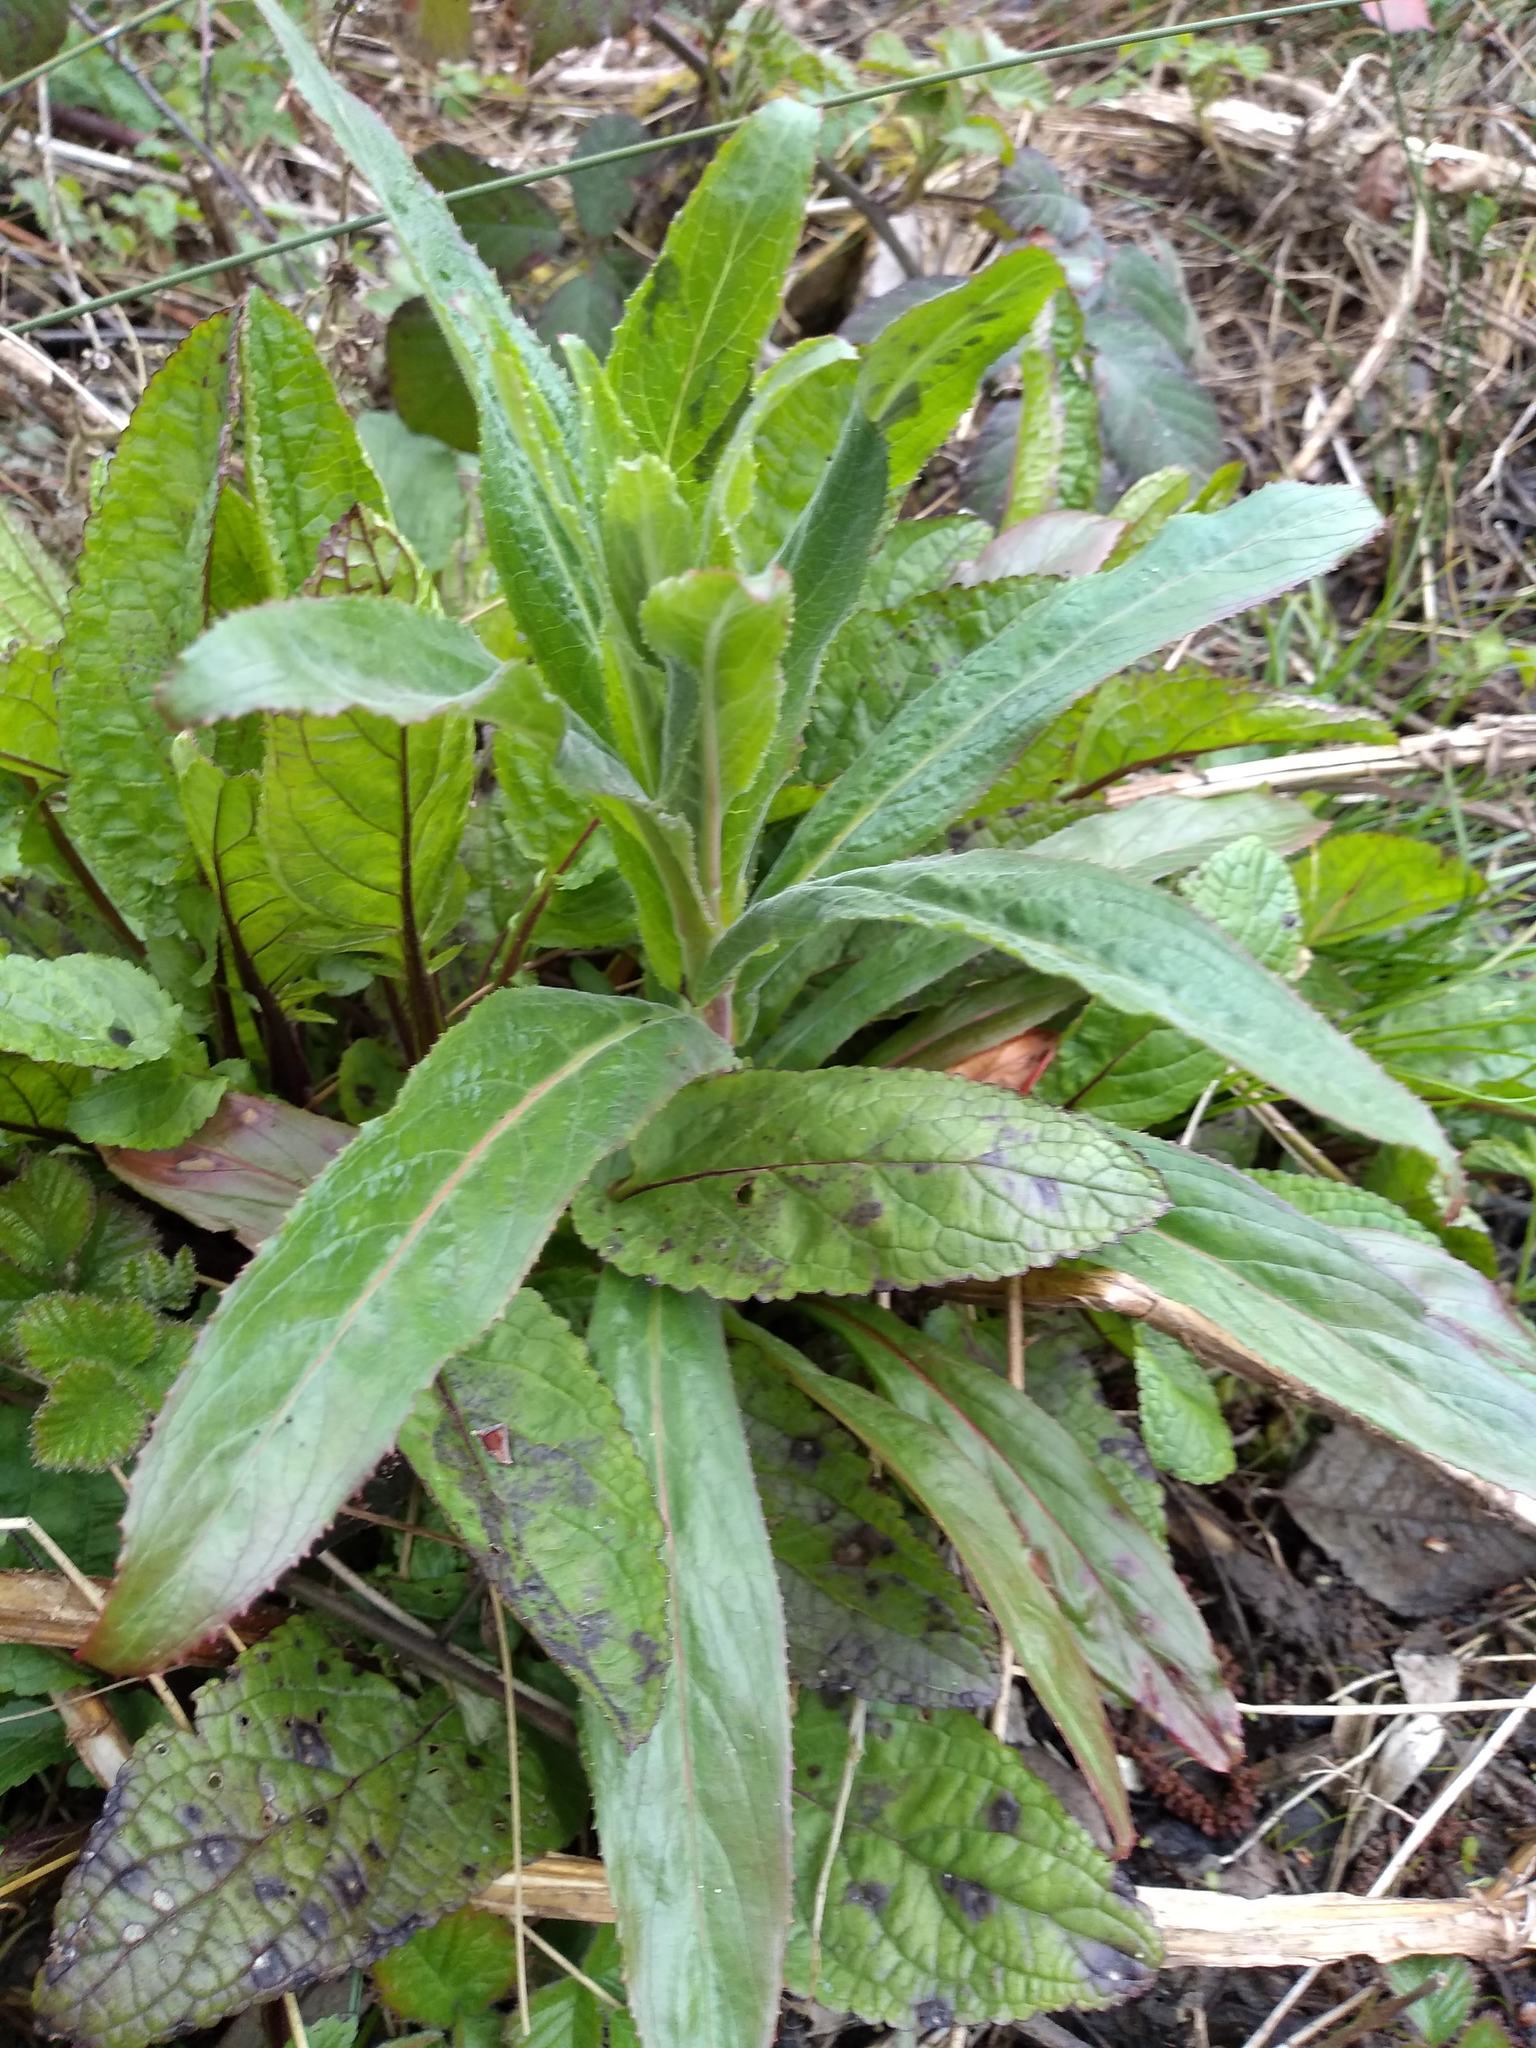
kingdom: Plantae
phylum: Tracheophyta
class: Magnoliopsida
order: Myrtales
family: Onagraceae
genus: Epilobium
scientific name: Epilobium hirsutum
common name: Great willowherb
